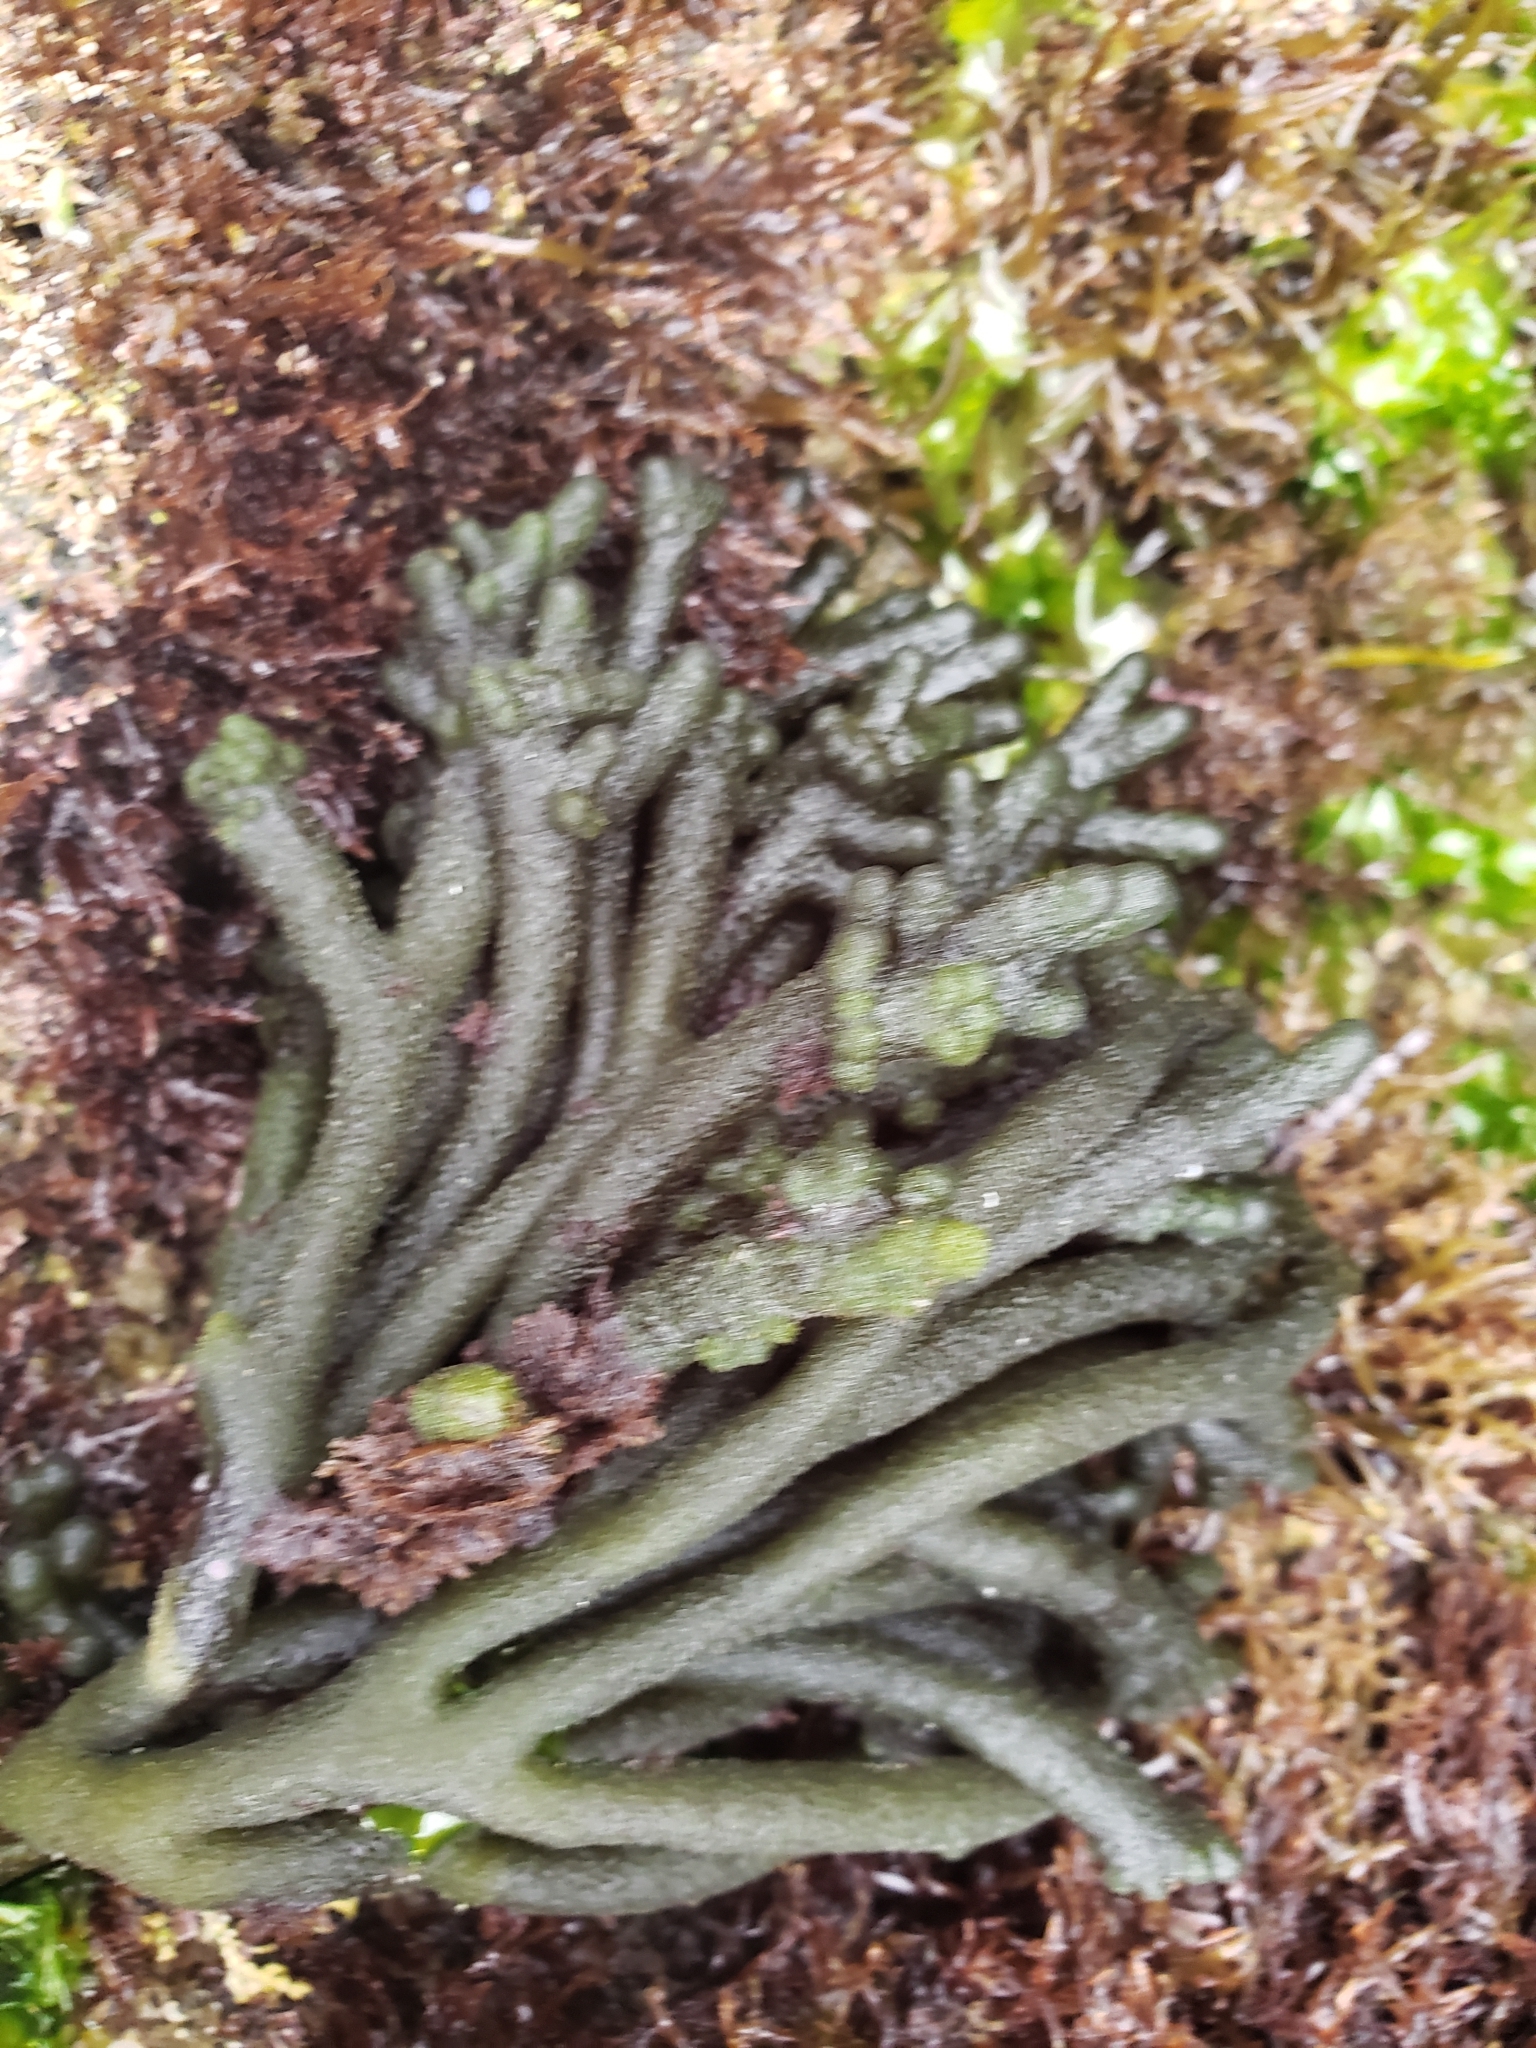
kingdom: Plantae
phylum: Chlorophyta
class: Ulvophyceae
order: Bryopsidales
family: Codiaceae
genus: Codium
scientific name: Codium fragile
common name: Dead man's fingers
